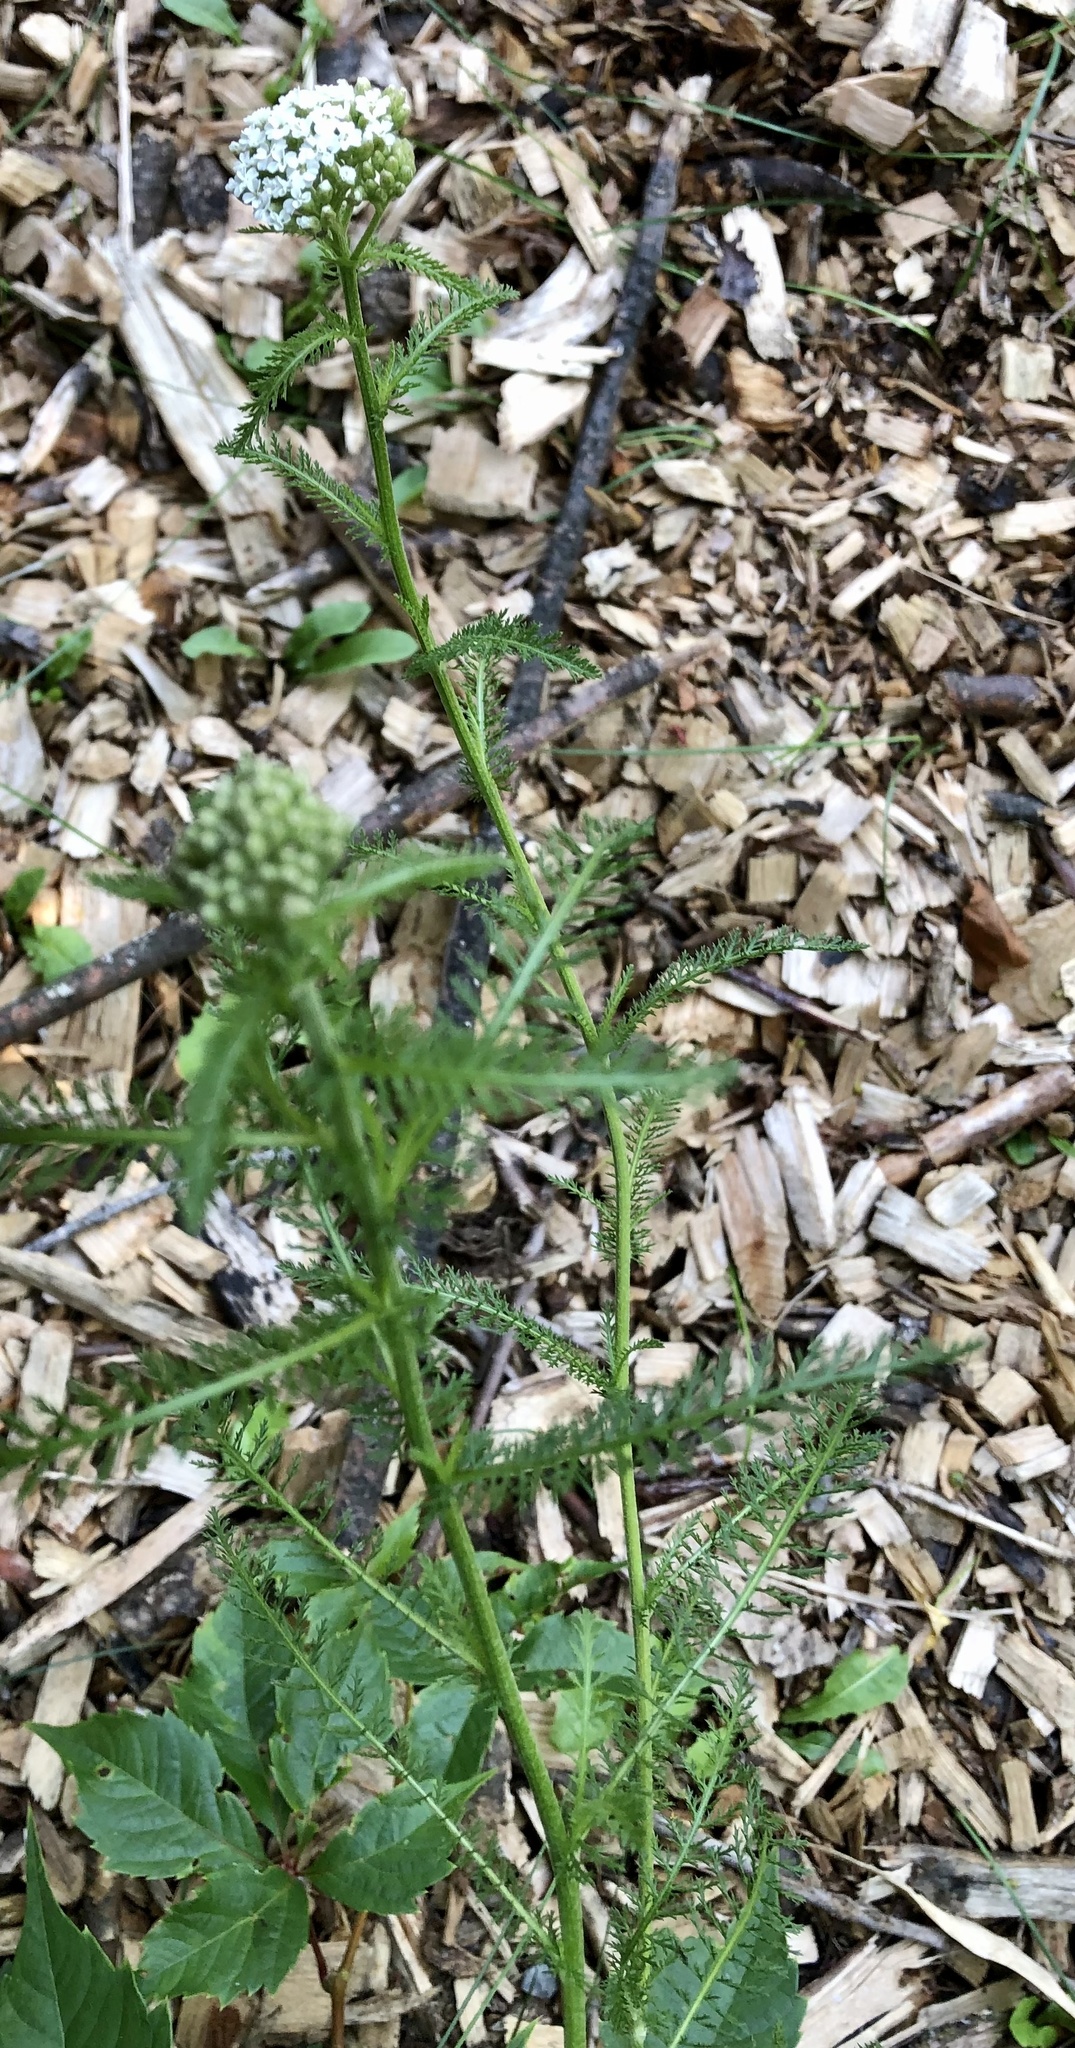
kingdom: Plantae
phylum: Tracheophyta
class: Magnoliopsida
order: Asterales
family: Asteraceae
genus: Achillea
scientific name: Achillea millefolium
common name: Yarrow
